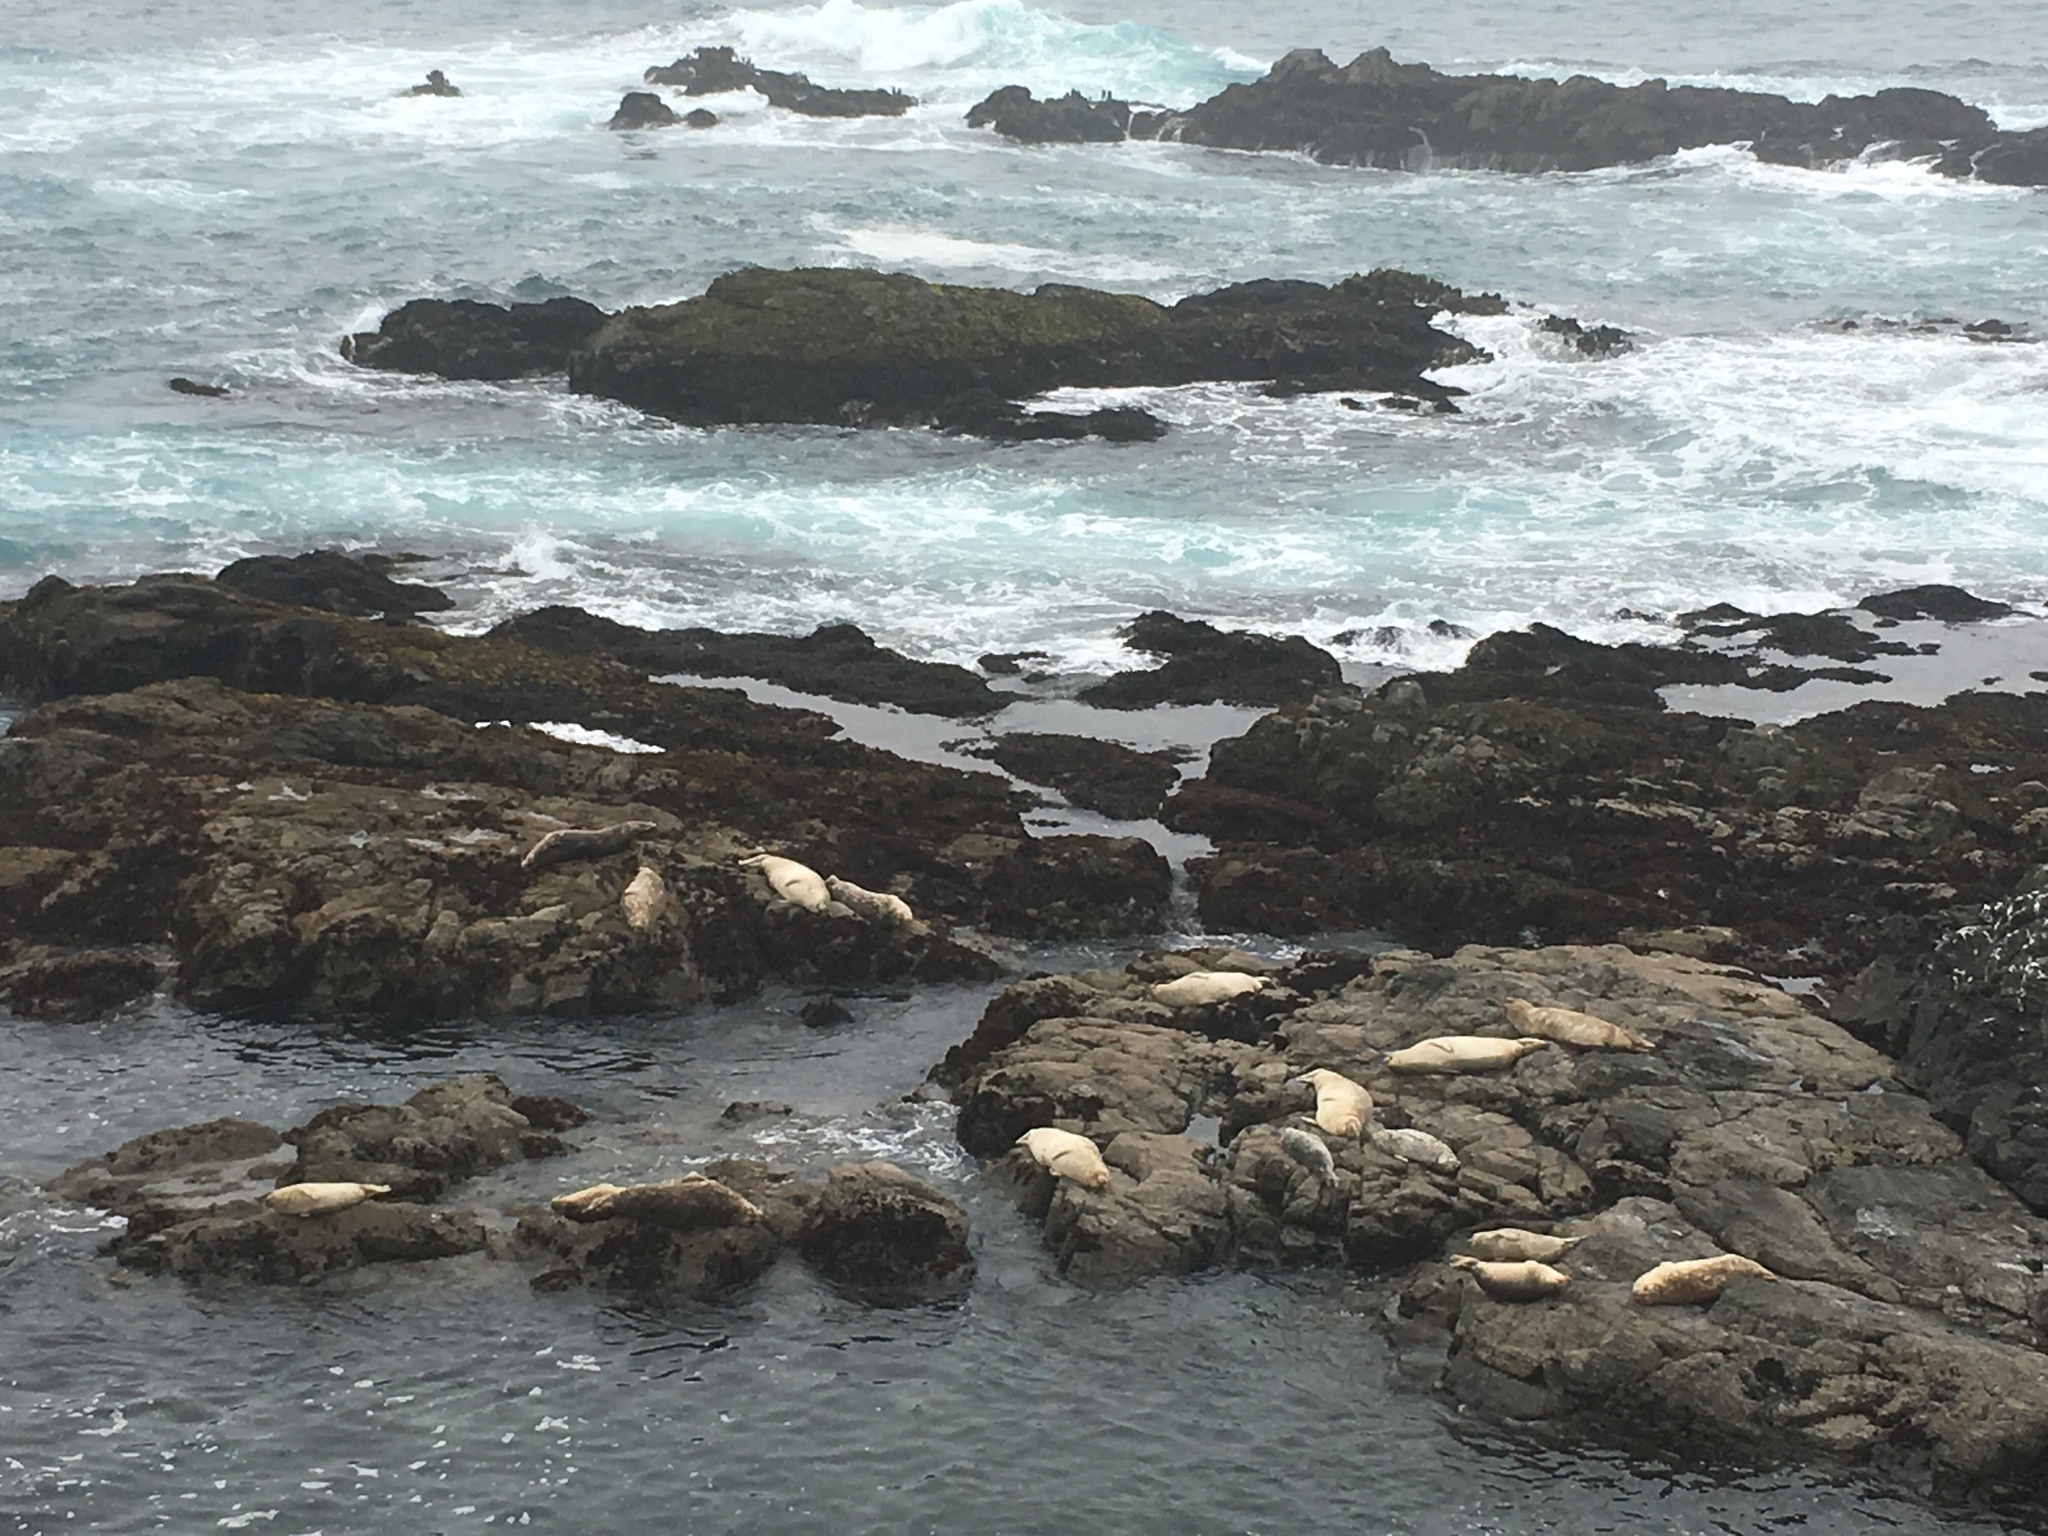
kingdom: Animalia
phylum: Chordata
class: Mammalia
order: Carnivora
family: Phocidae
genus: Phoca
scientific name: Phoca vitulina
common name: Harbor seal
